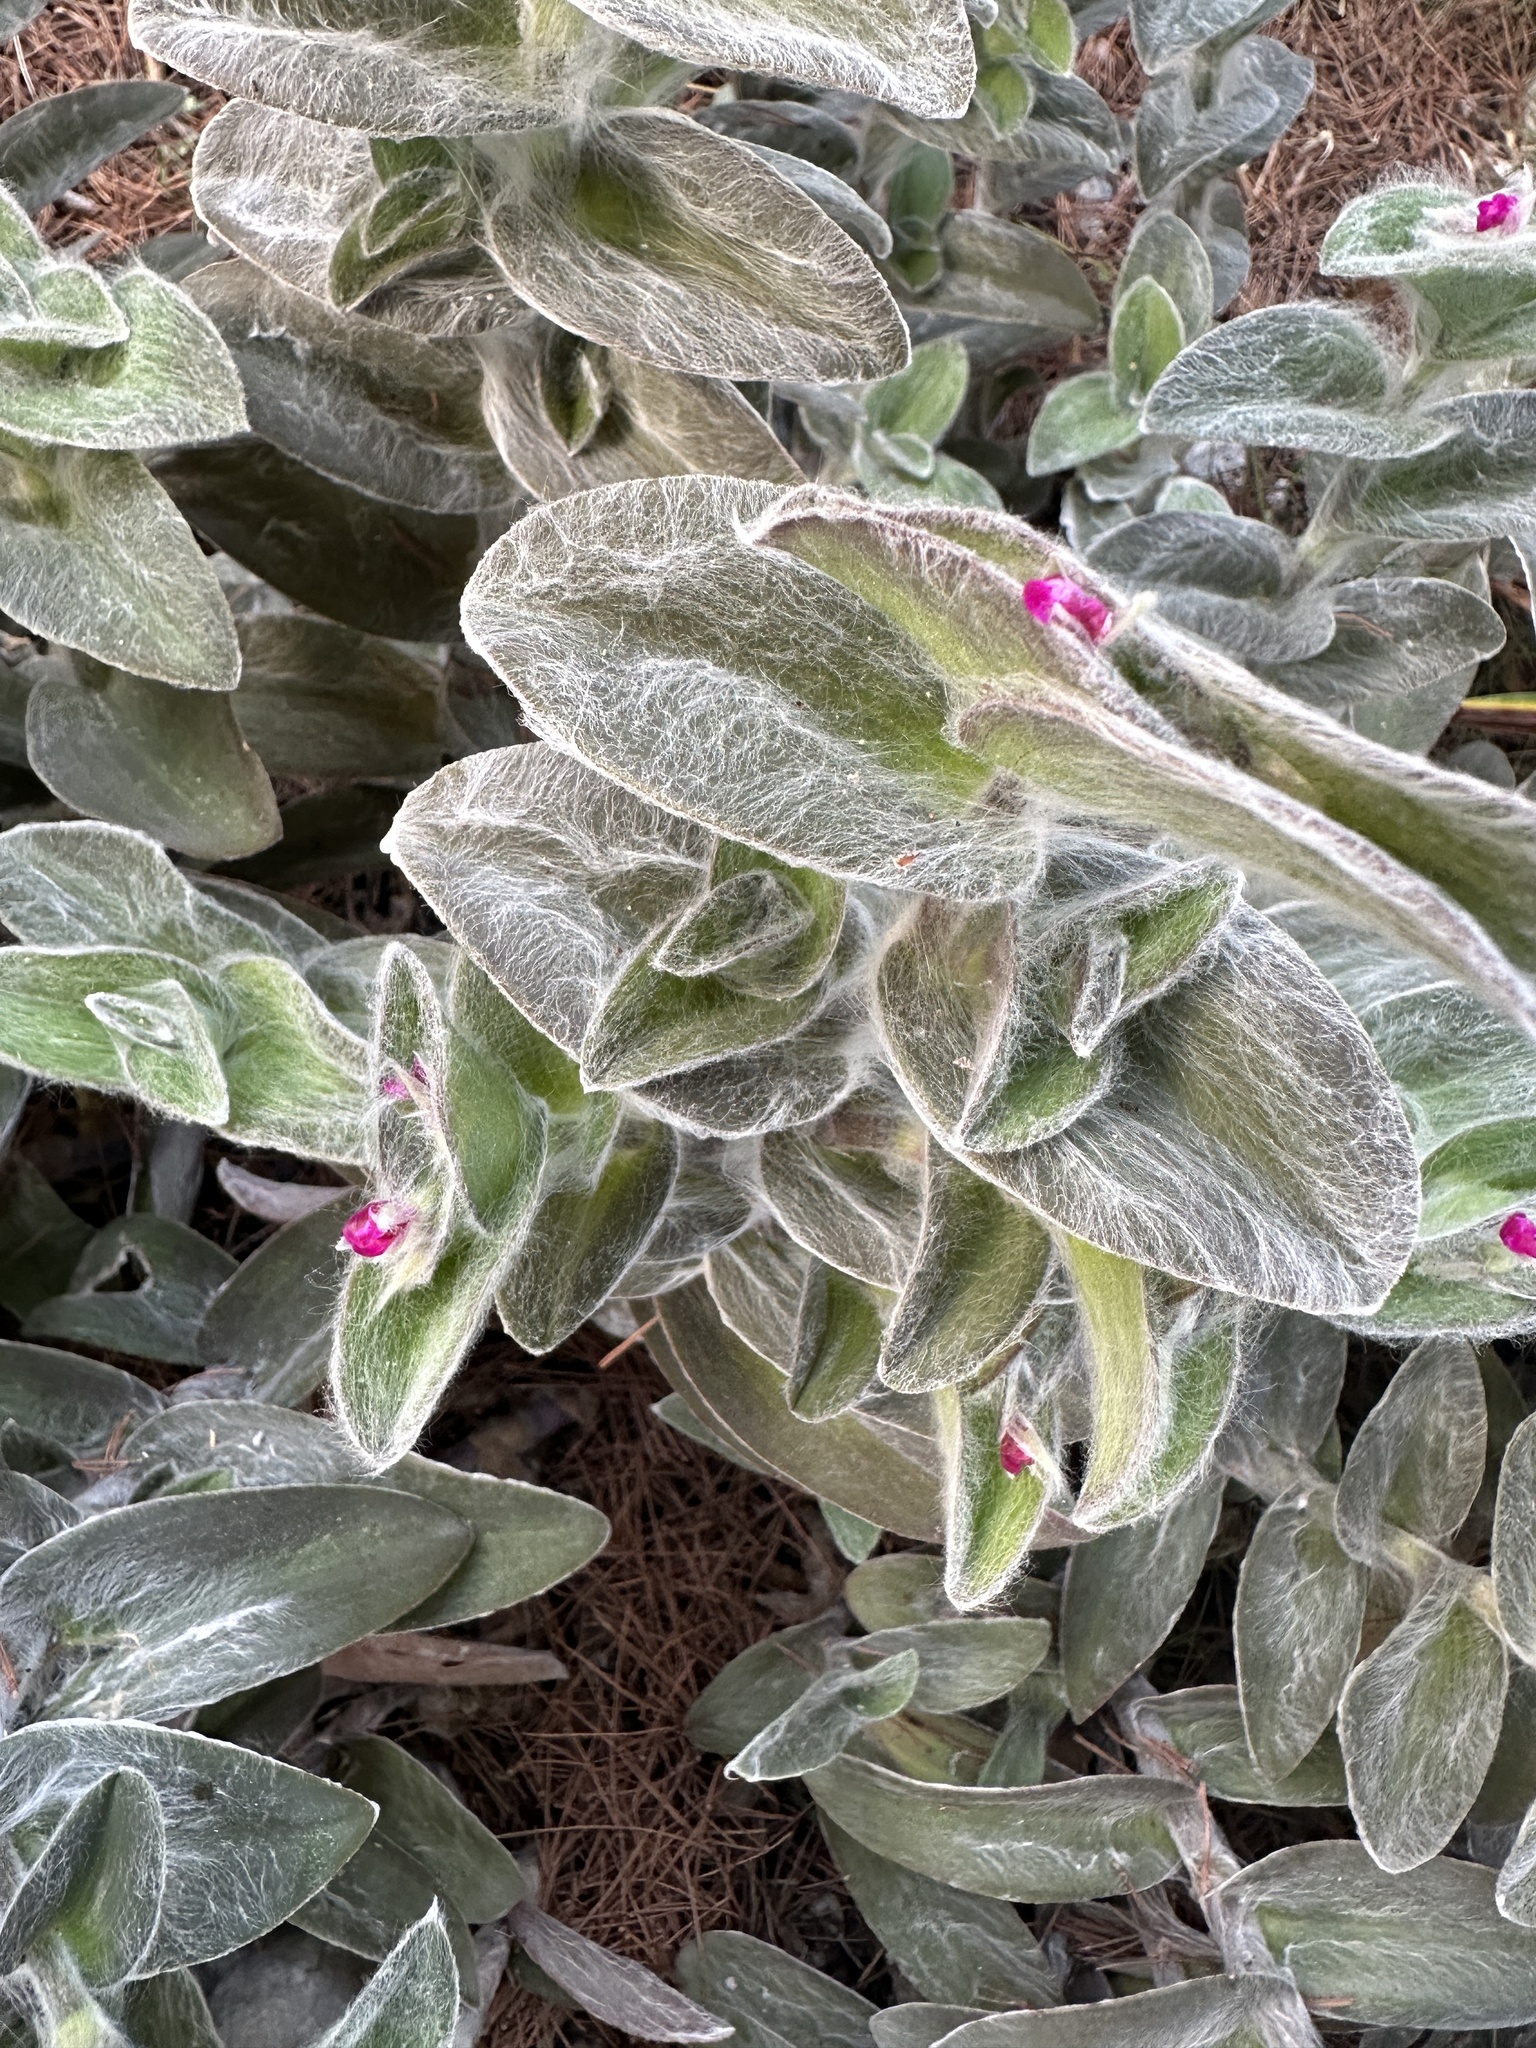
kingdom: Plantae
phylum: Tracheophyta
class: Liliopsida
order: Commelinales
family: Commelinaceae
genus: Tradescantia
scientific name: Tradescantia sillamontana
